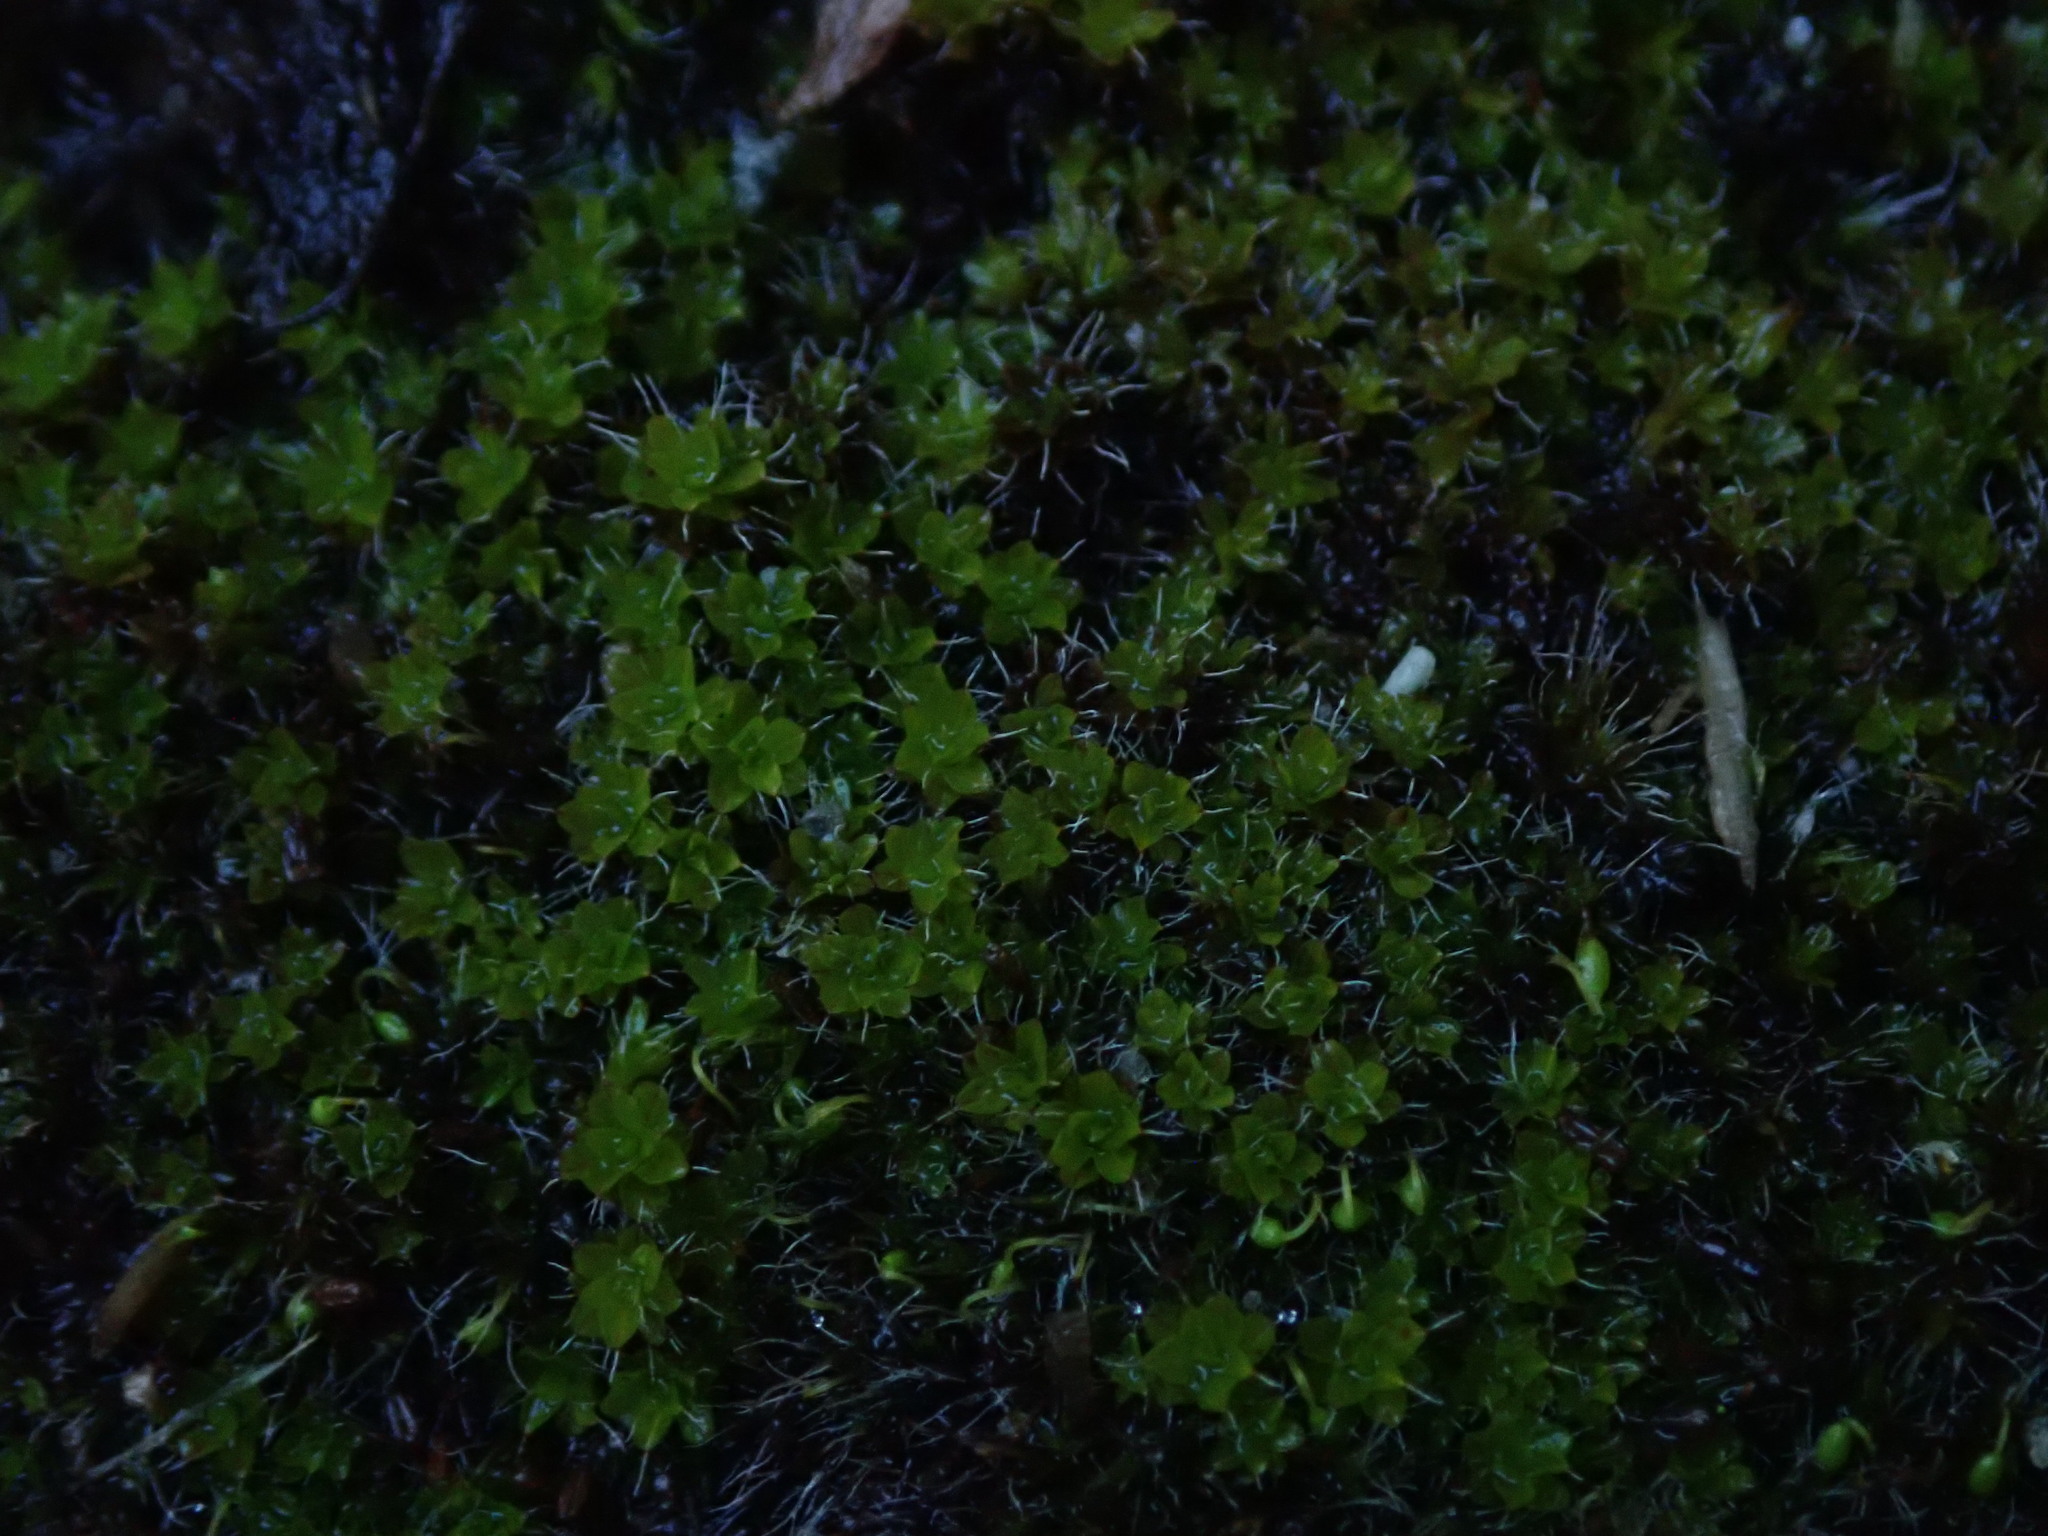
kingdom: Plantae
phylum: Bryophyta
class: Bryopsida
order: Pottiales
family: Pottiaceae
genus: Syntrichia
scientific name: Syntrichia montana
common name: Intermediate screw-moss
